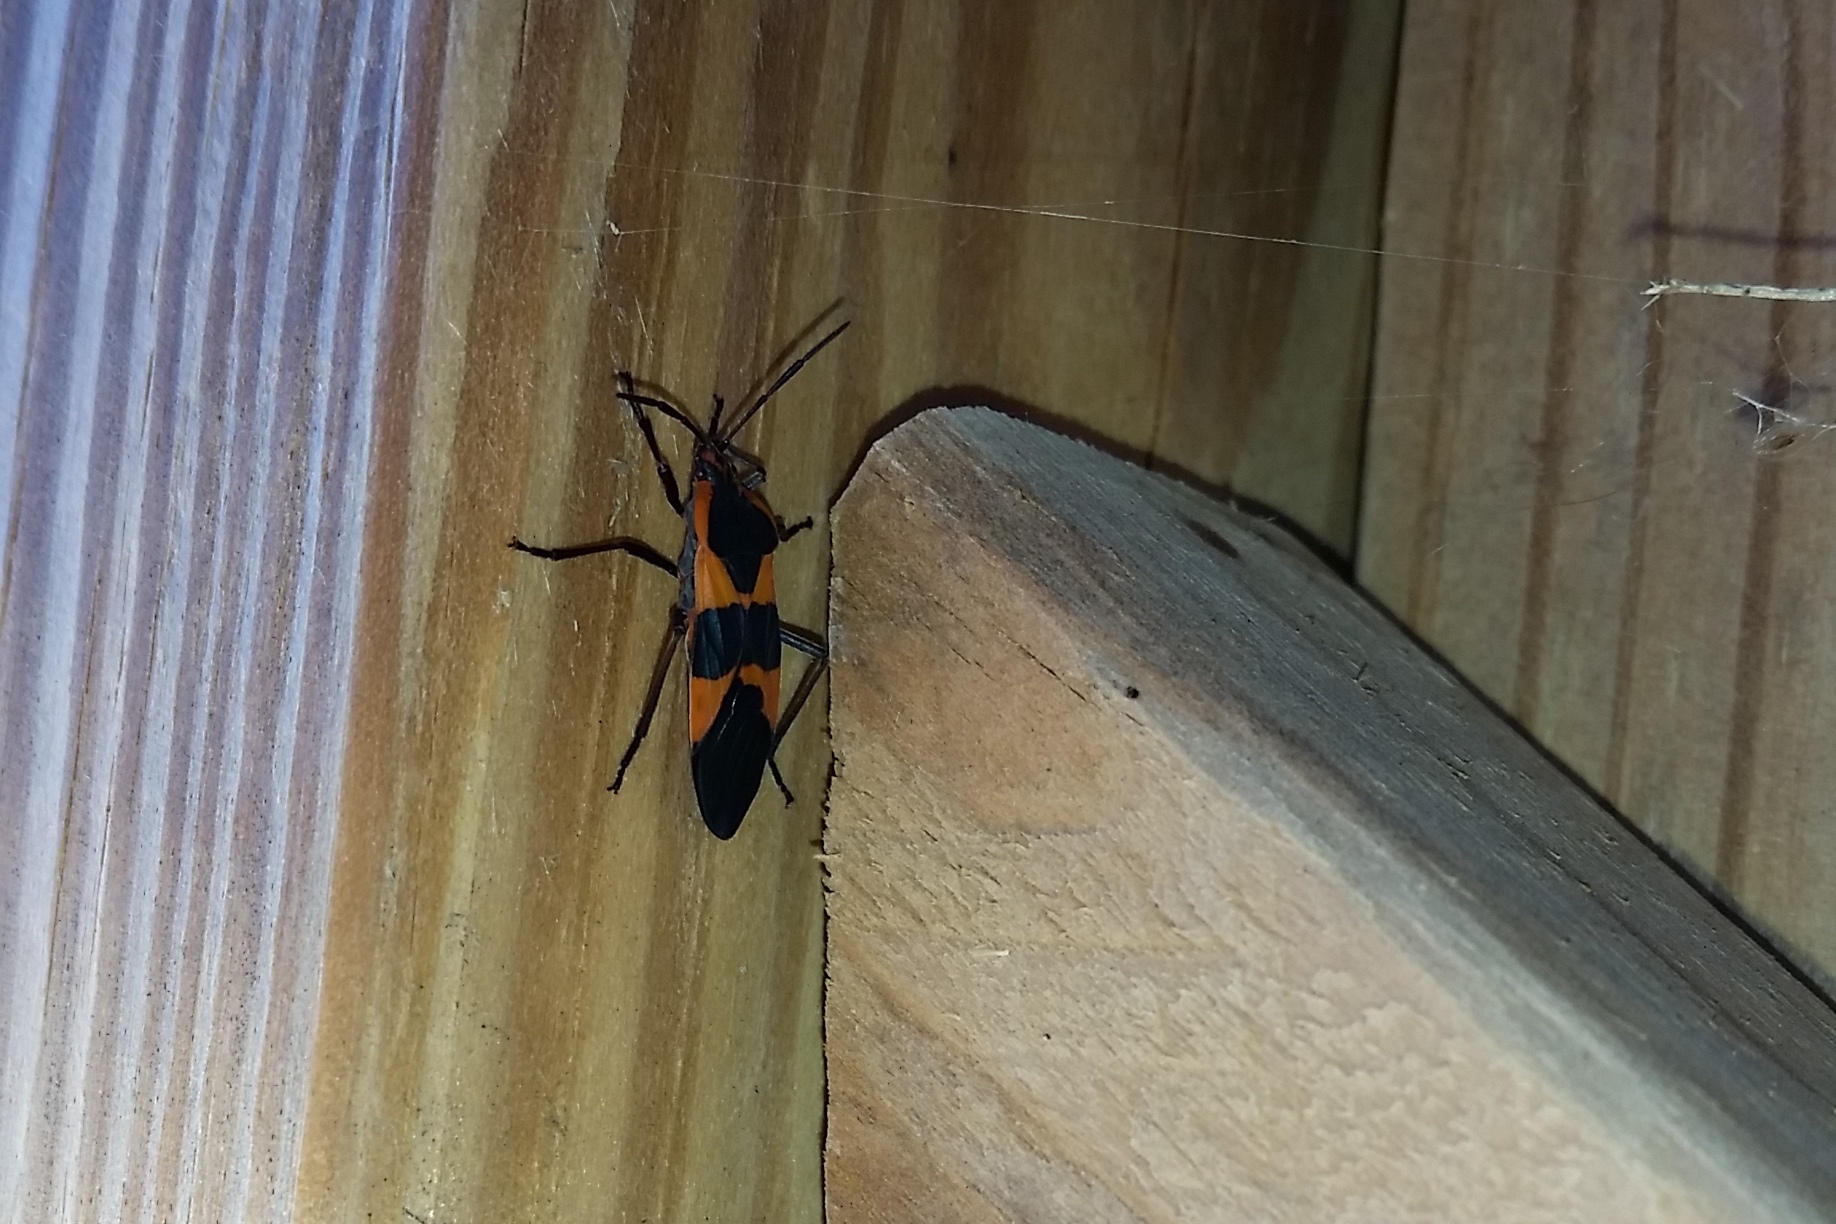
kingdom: Animalia
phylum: Arthropoda
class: Insecta
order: Hemiptera
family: Lygaeidae
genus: Oncopeltus
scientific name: Oncopeltus fasciatus
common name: Large milkweed bug
